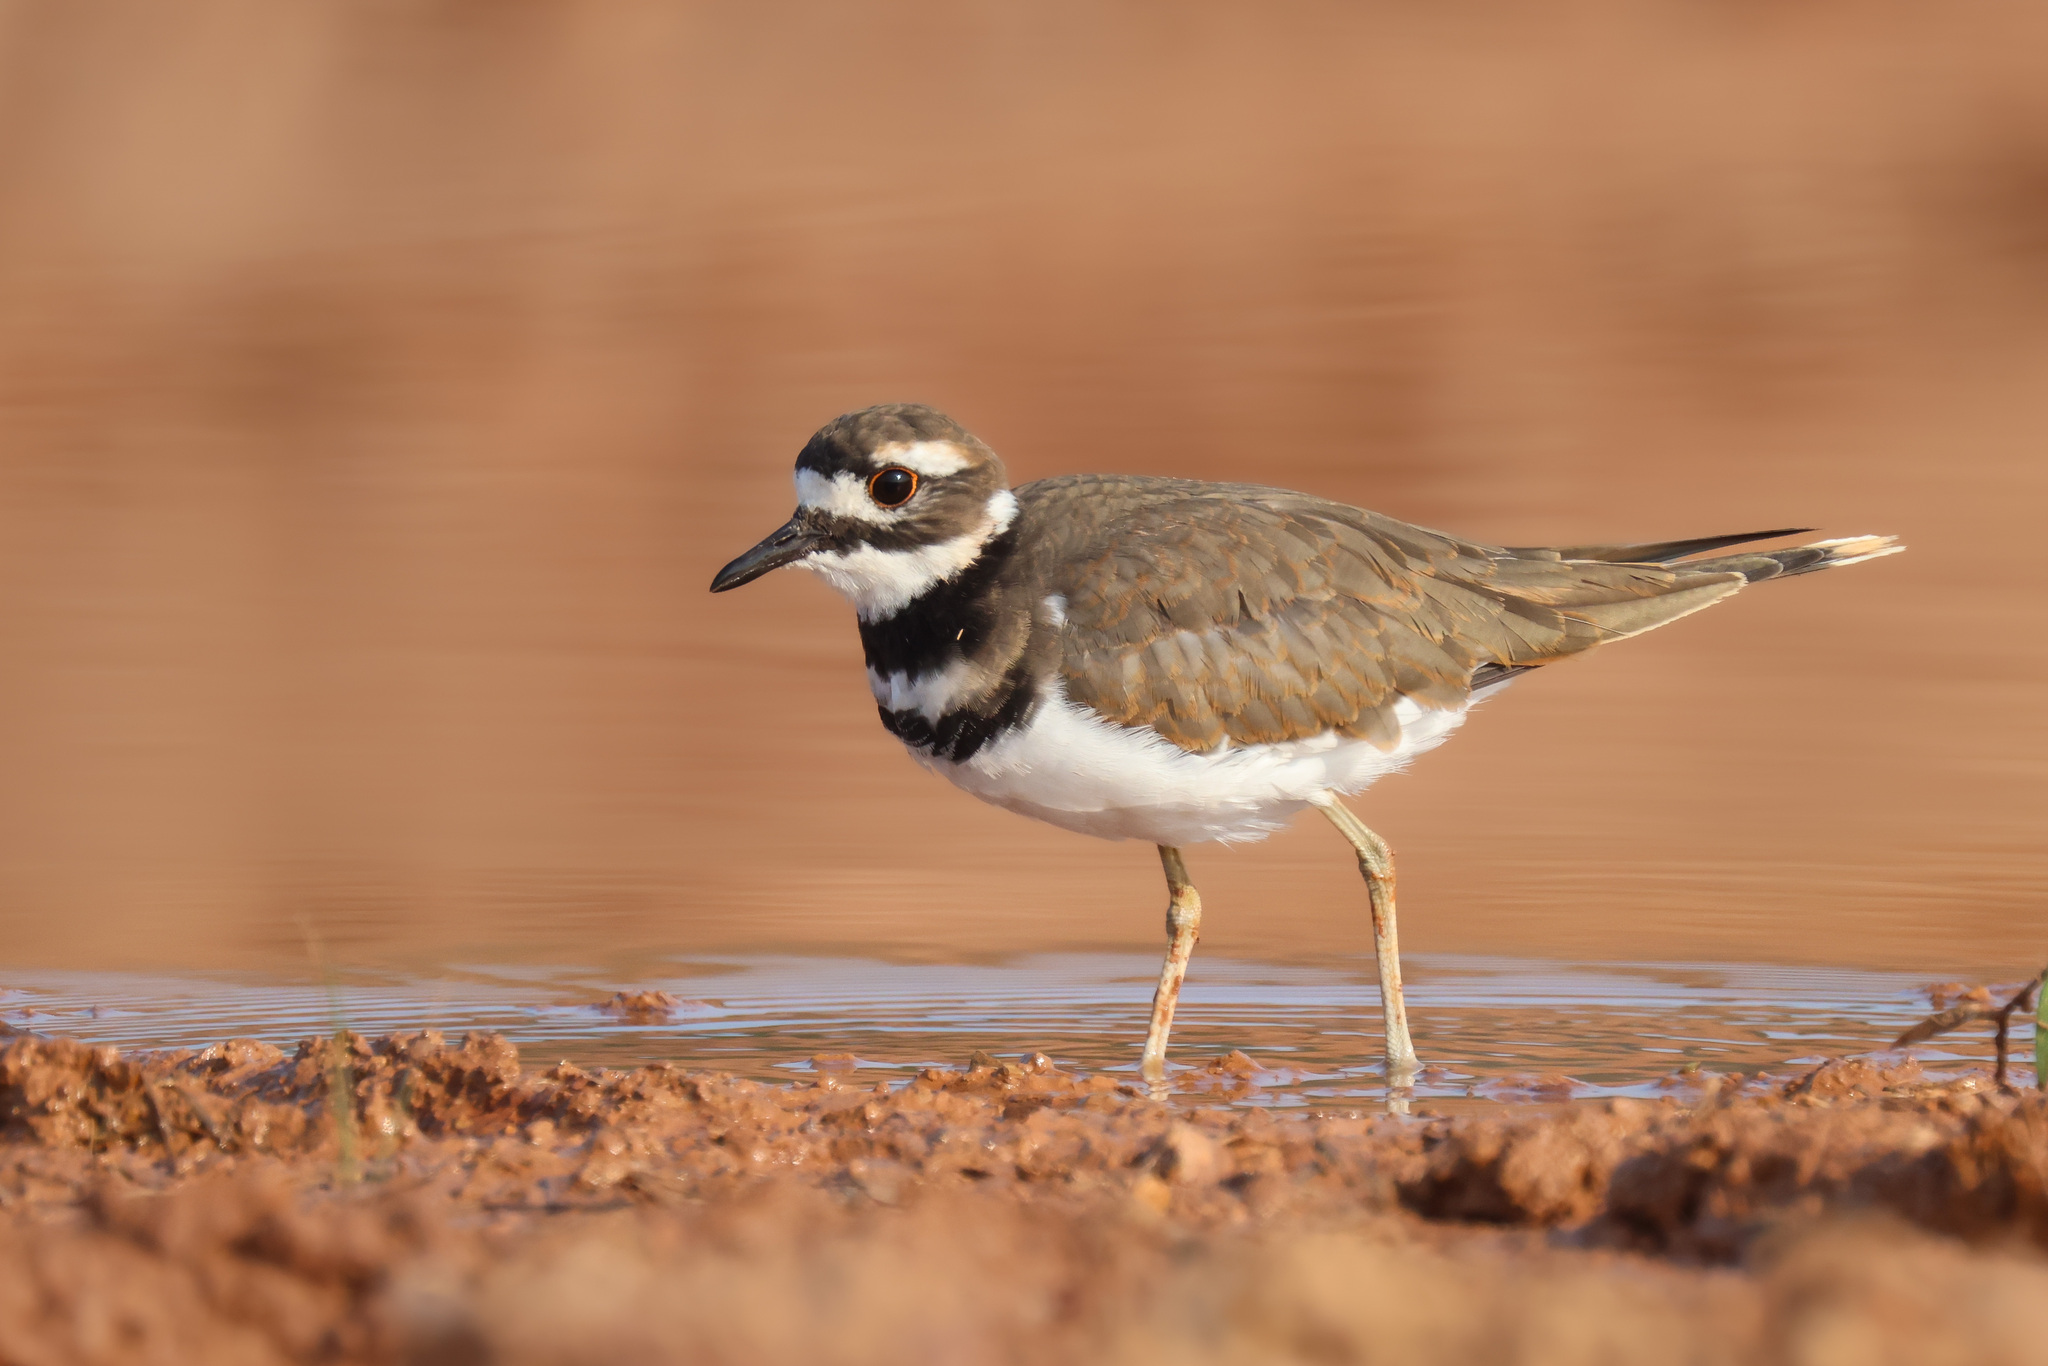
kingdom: Animalia
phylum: Chordata
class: Aves
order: Charadriiformes
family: Charadriidae
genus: Charadrius
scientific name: Charadrius vociferus
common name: Killdeer
